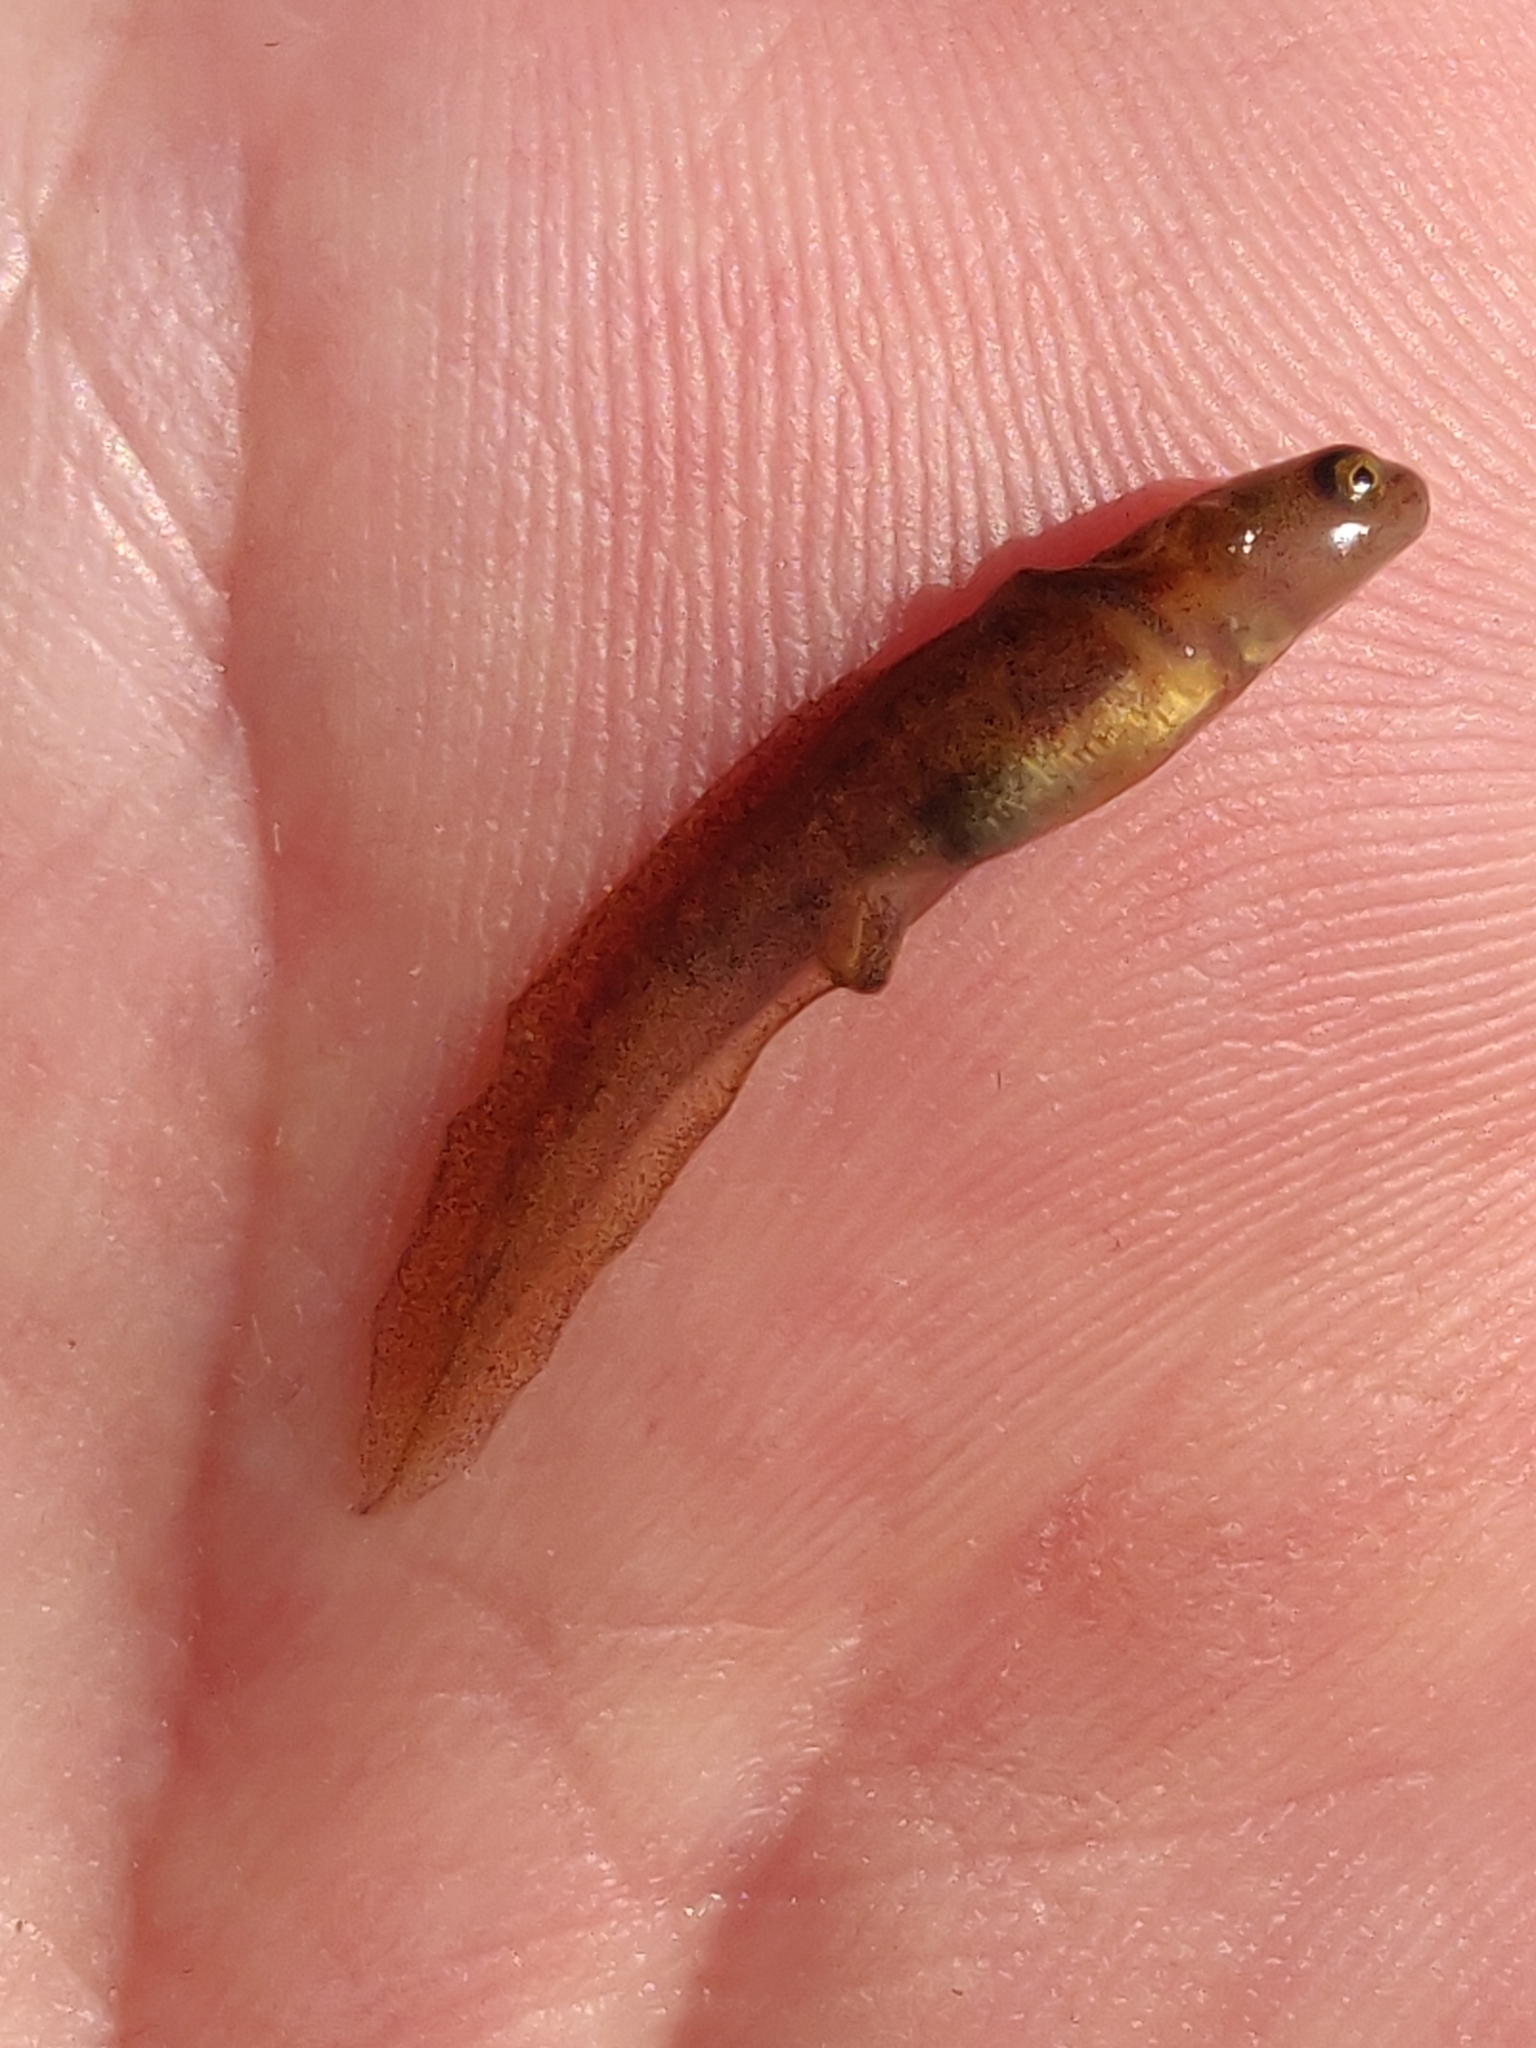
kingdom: Animalia
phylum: Chordata
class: Amphibia
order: Caudata
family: Salamandridae
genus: Lissotriton
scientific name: Lissotriton vulgaris
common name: Smooth newt
